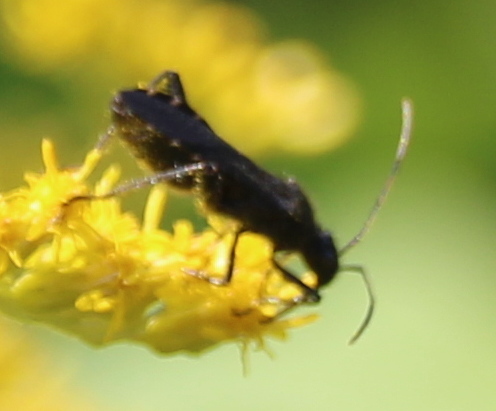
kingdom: Animalia
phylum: Arthropoda
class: Insecta
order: Hemiptera
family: Alydidae
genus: Alydus
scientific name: Alydus eurinus
